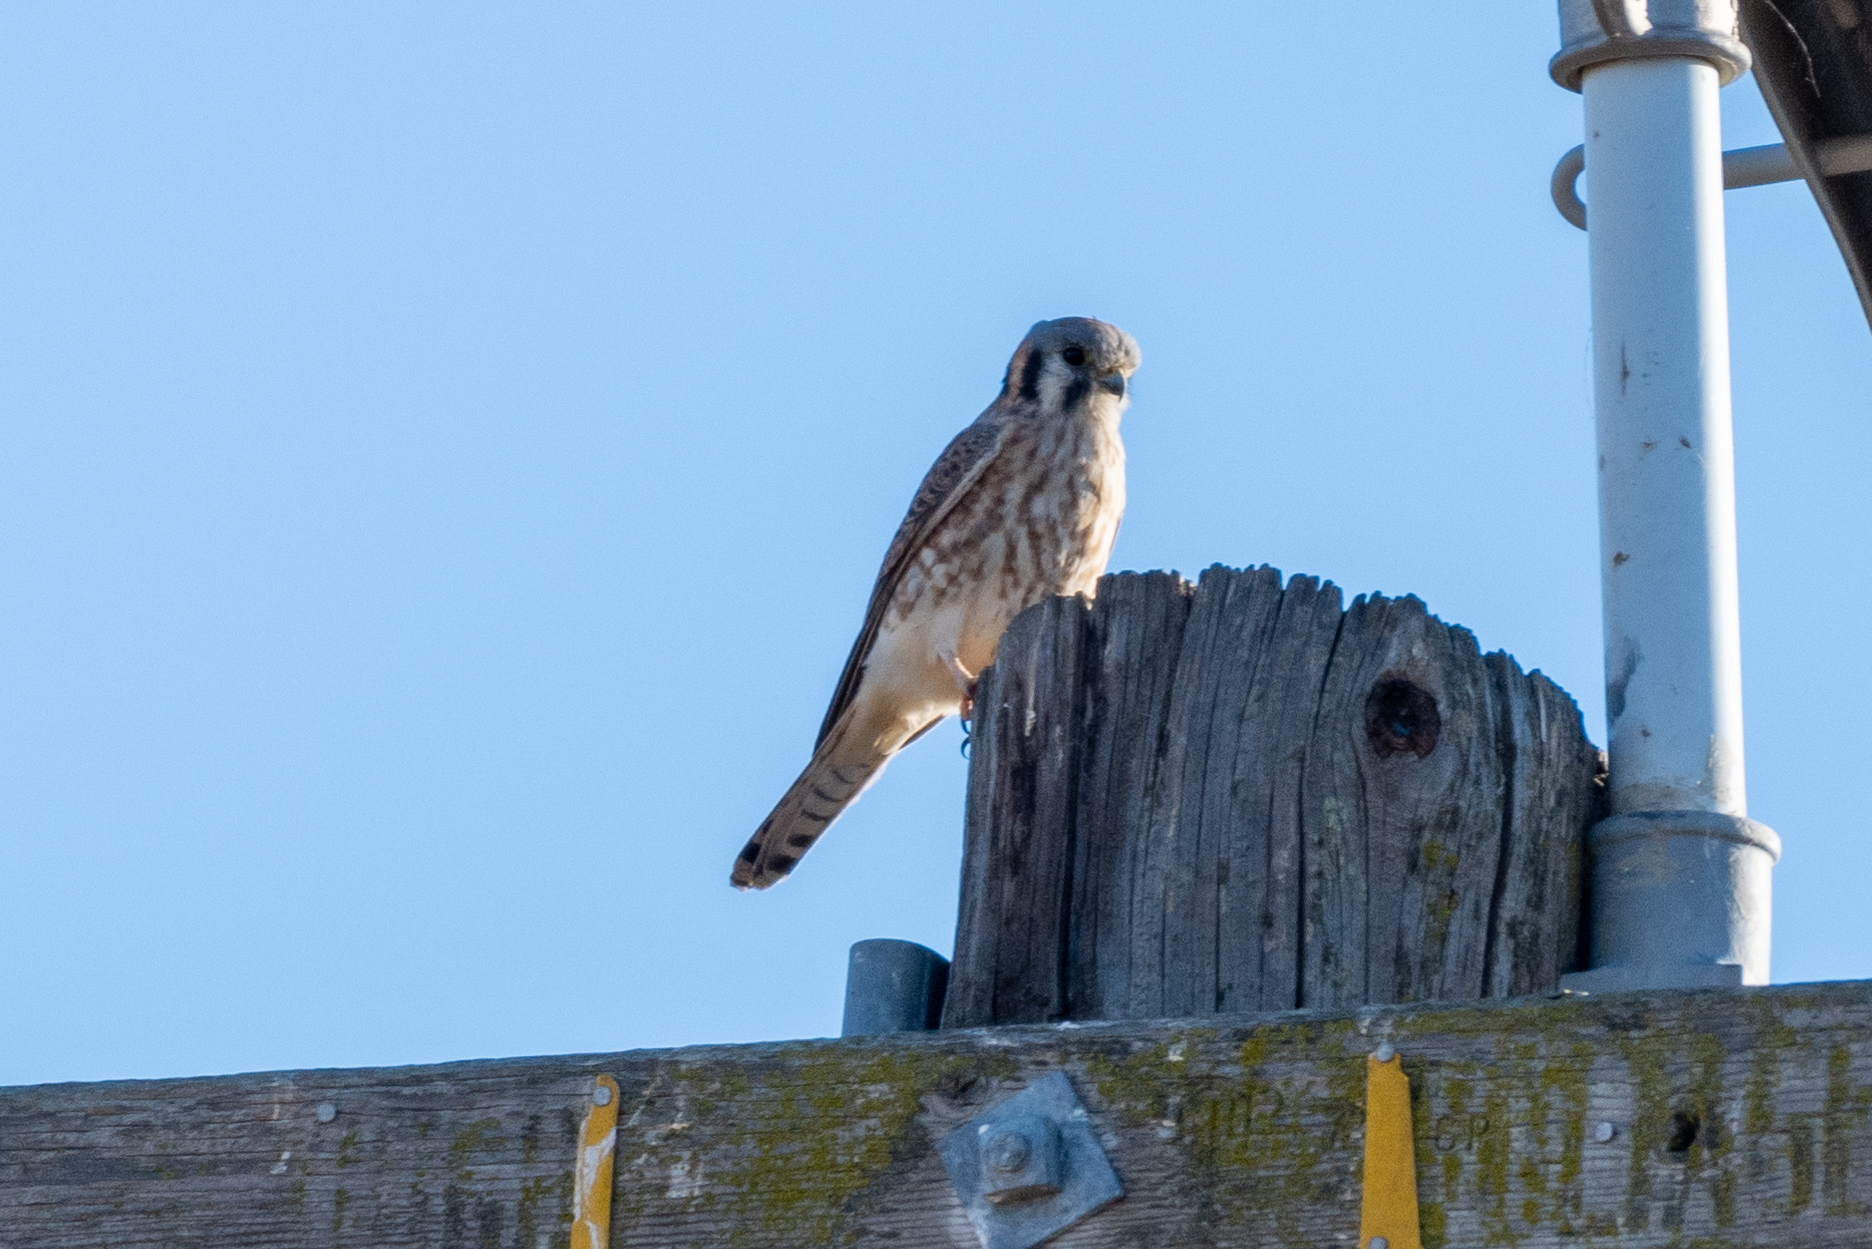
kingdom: Animalia
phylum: Chordata
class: Aves
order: Falconiformes
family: Falconidae
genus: Falco
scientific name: Falco sparverius
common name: American kestrel
